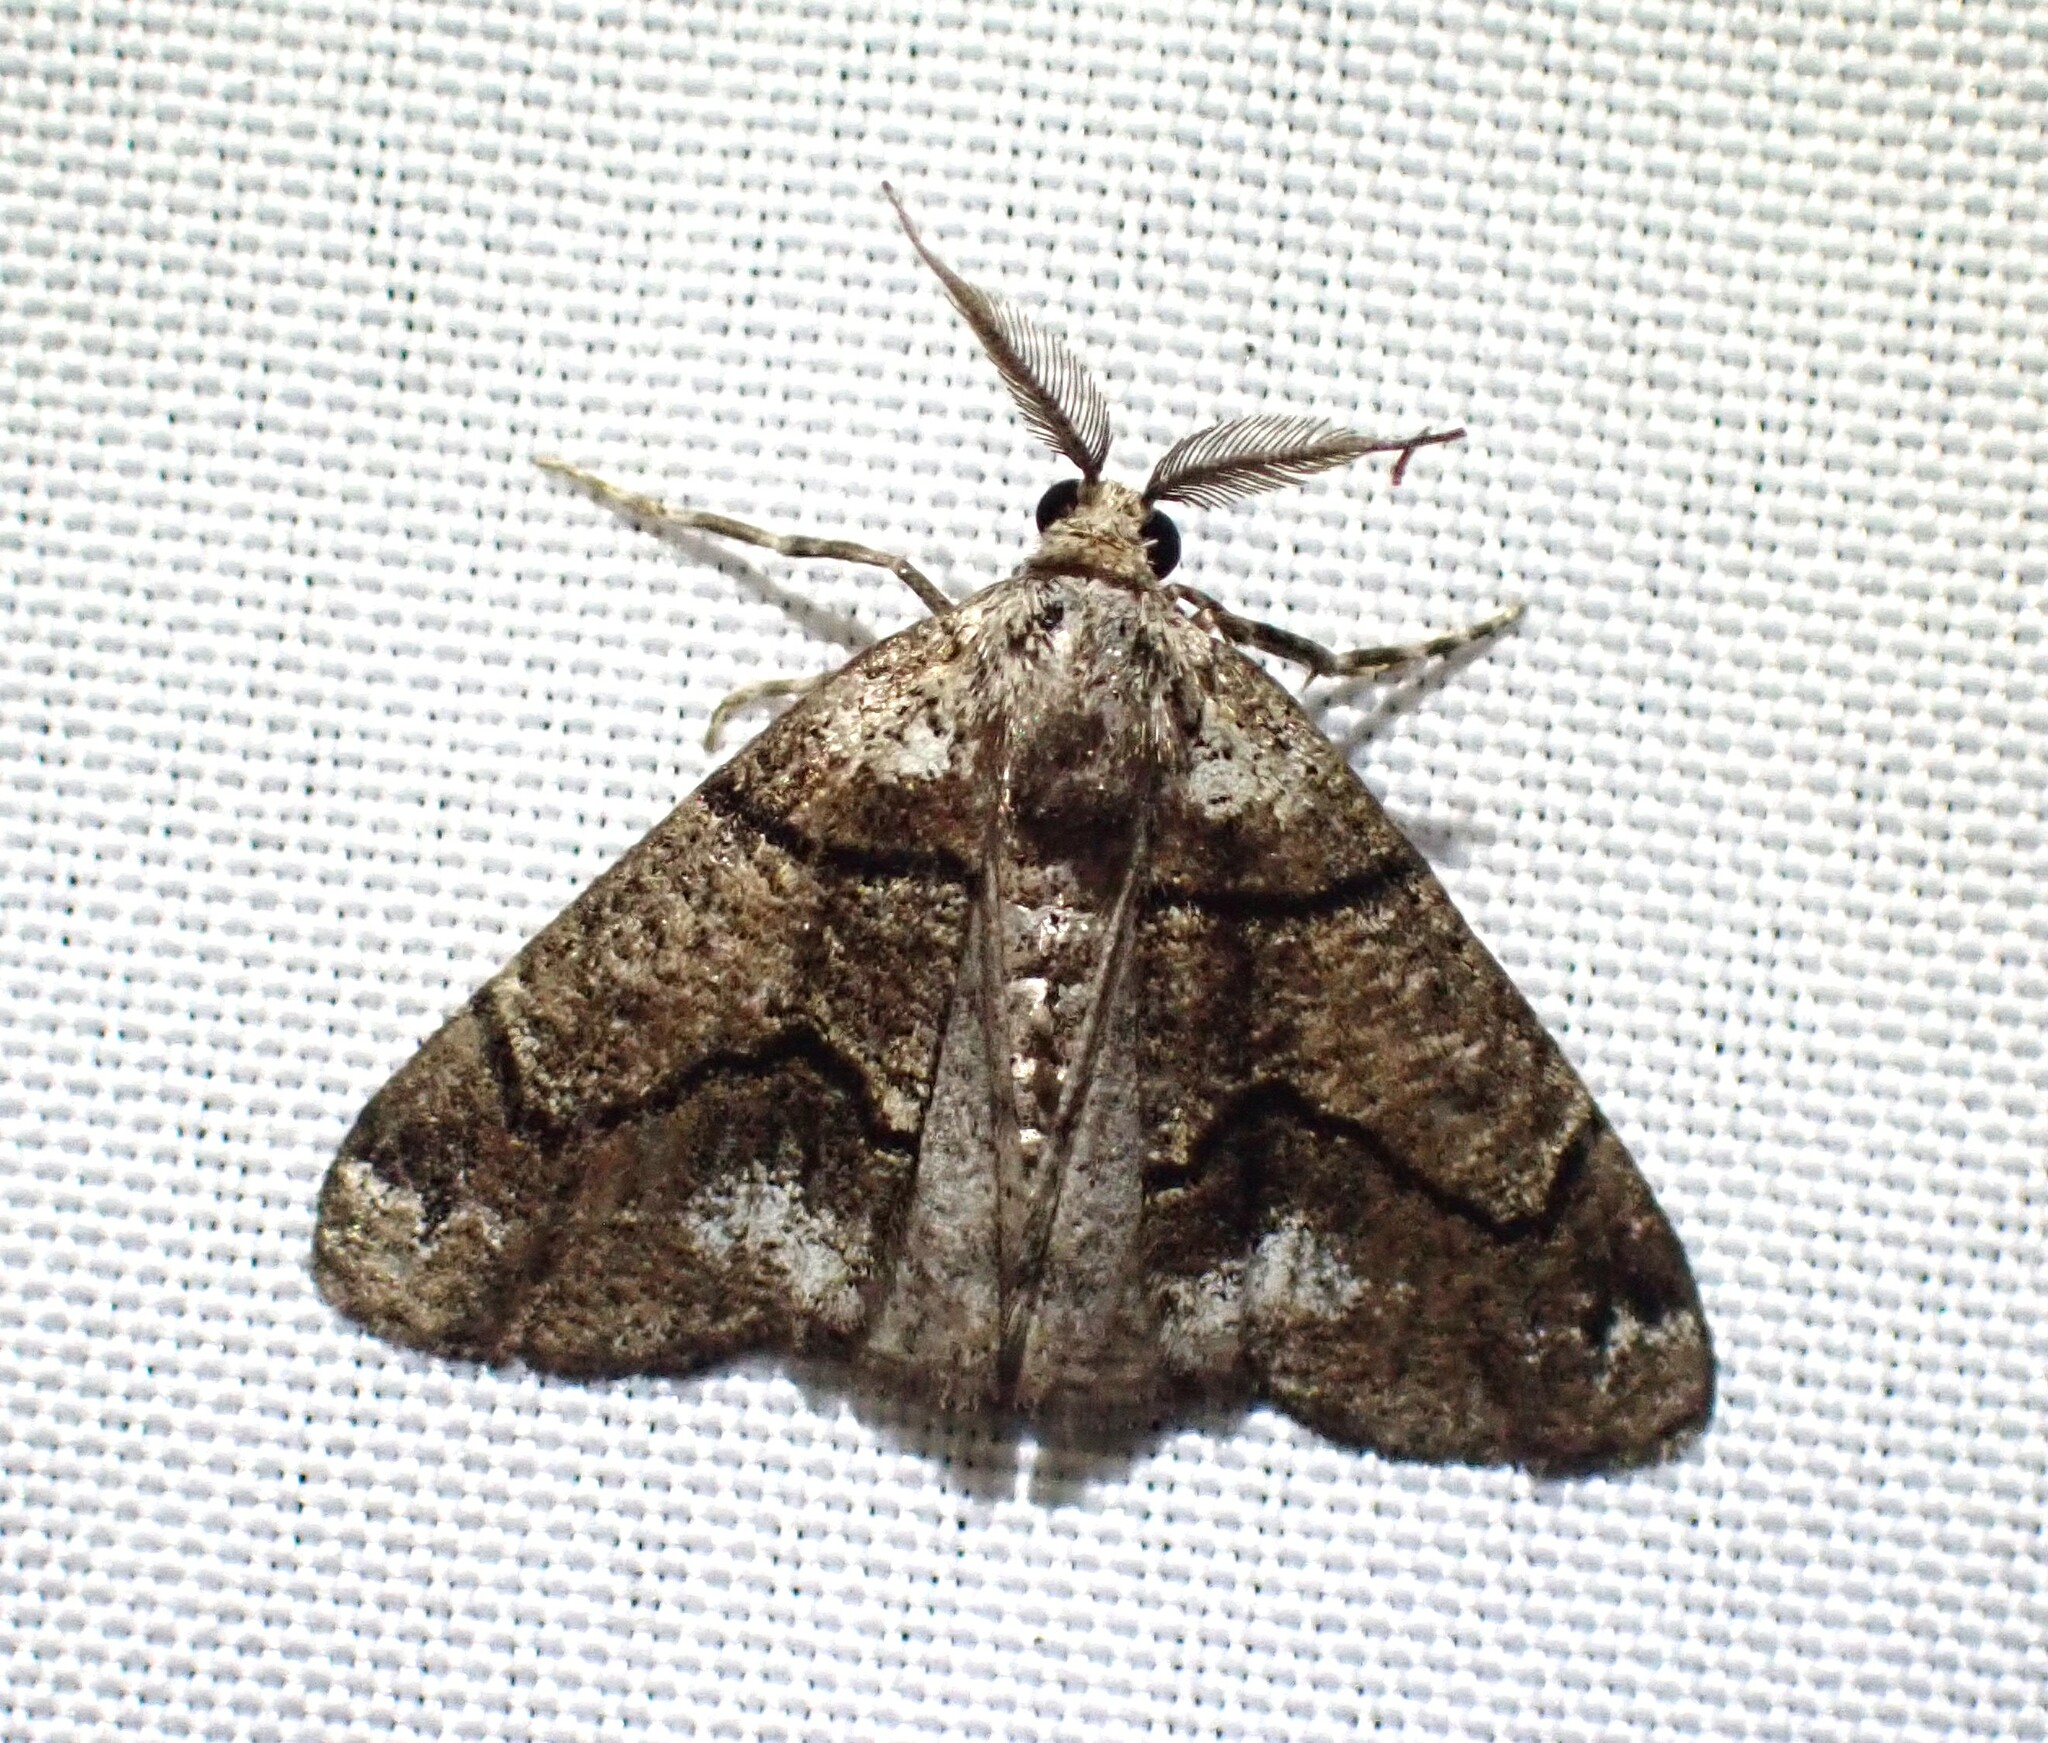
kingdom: Animalia
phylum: Arthropoda
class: Insecta
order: Lepidoptera
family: Geometridae
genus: Gabriola
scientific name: Gabriola dyari
